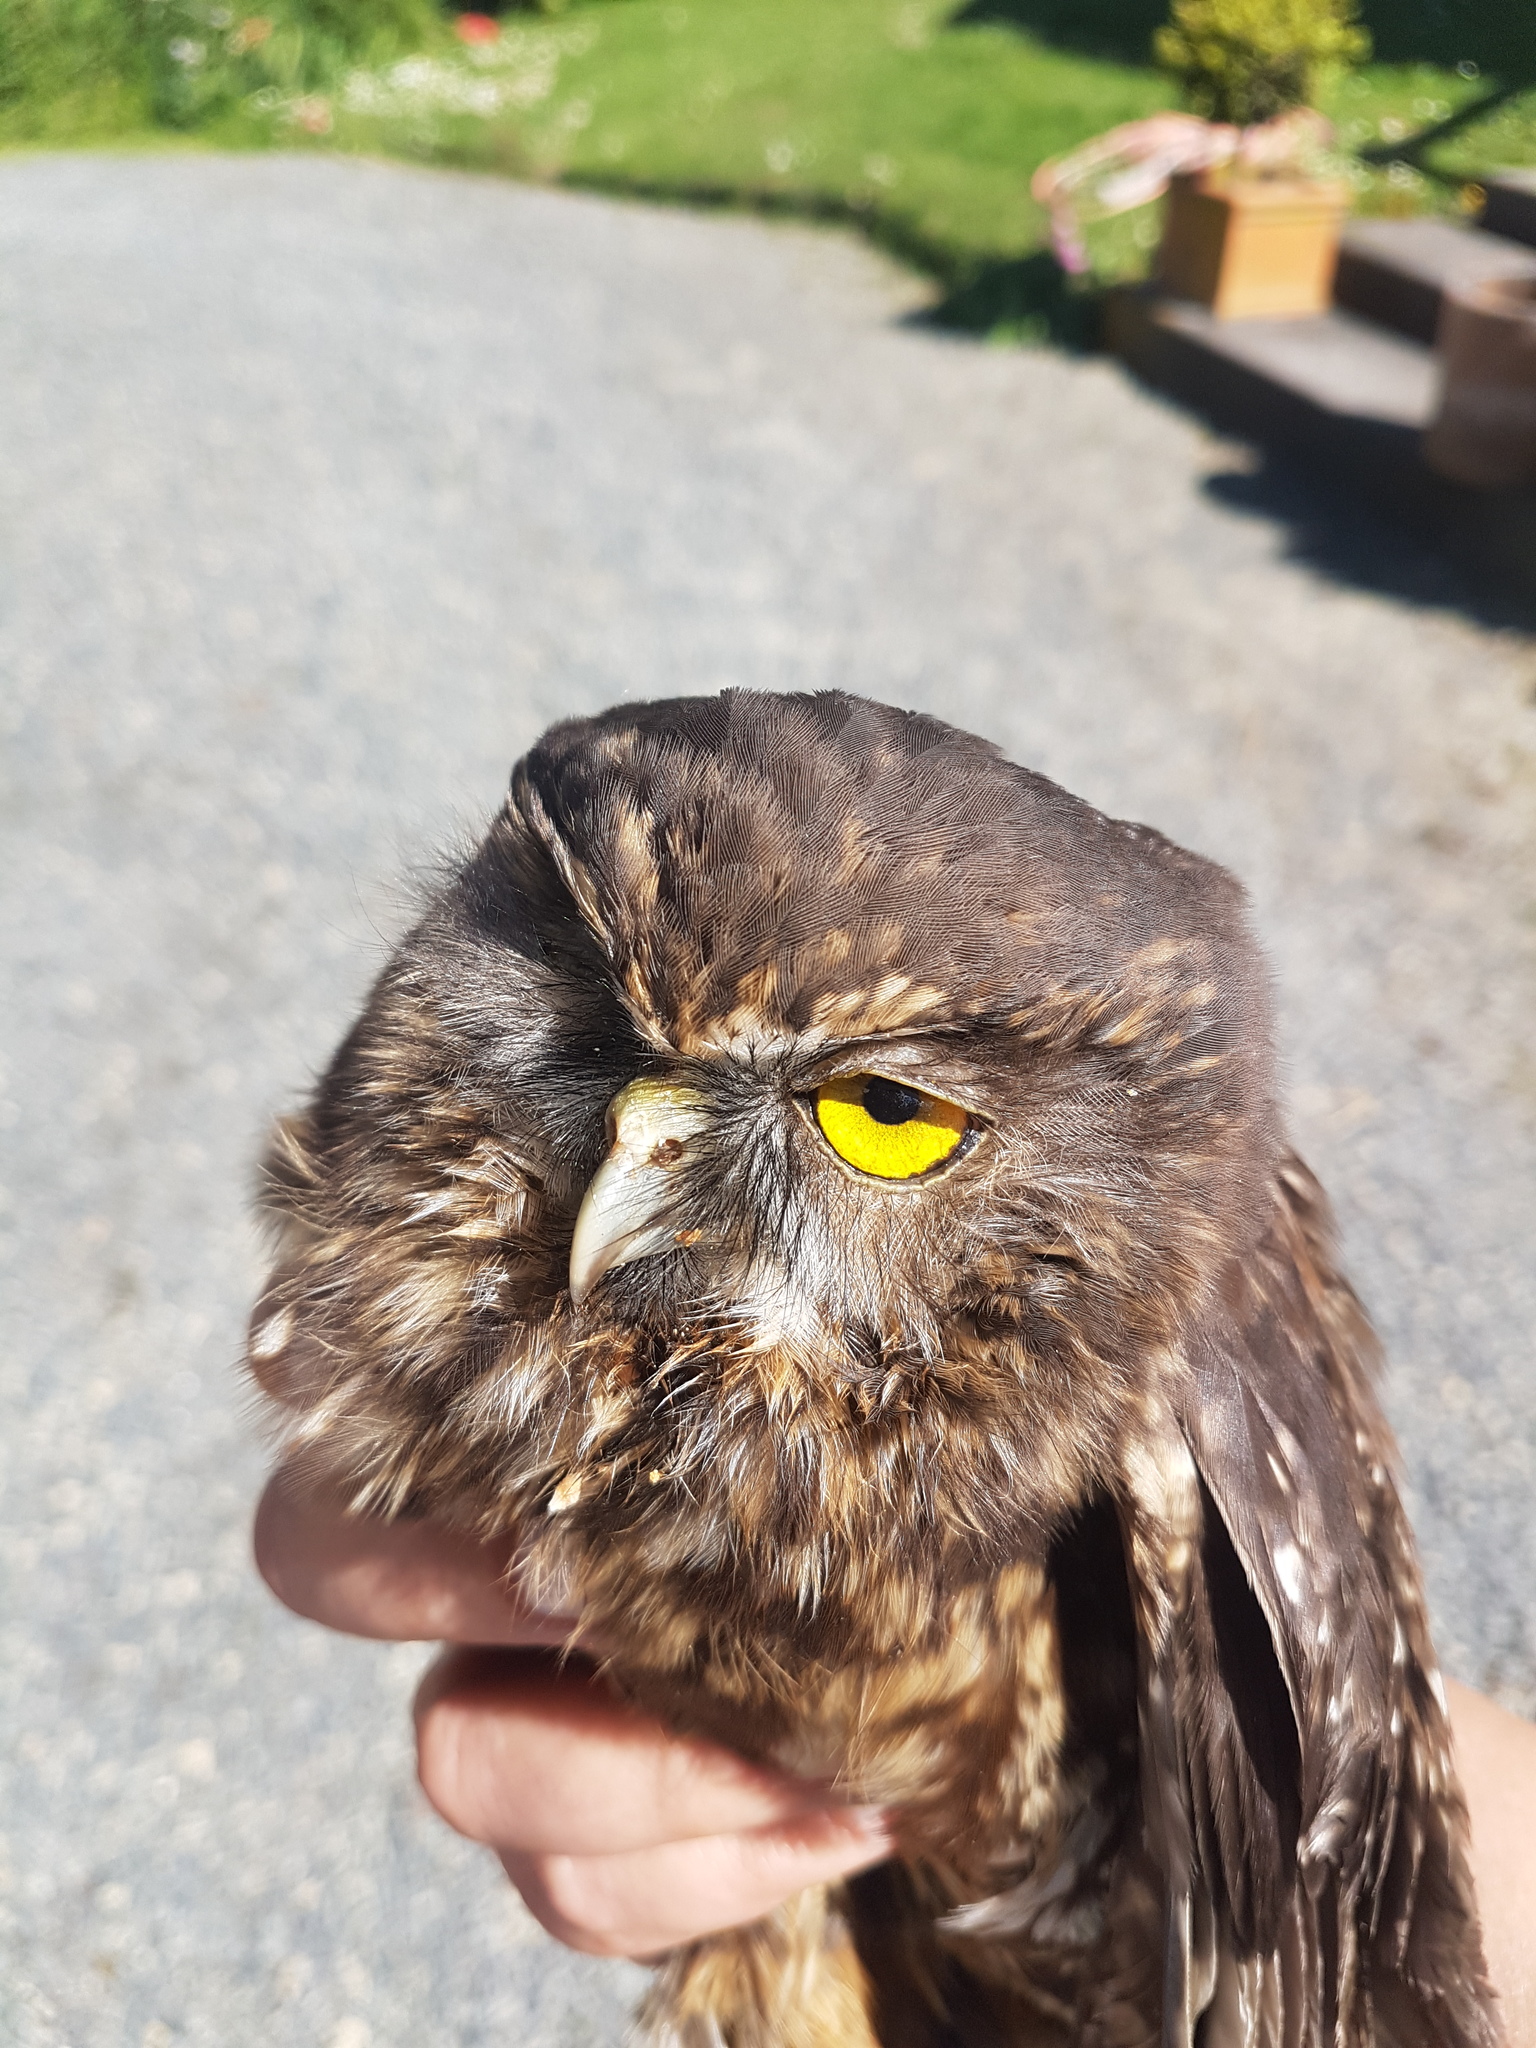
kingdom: Animalia
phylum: Chordata
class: Aves
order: Strigiformes
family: Strigidae
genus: Ninox
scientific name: Ninox novaeseelandiae
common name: Morepork
